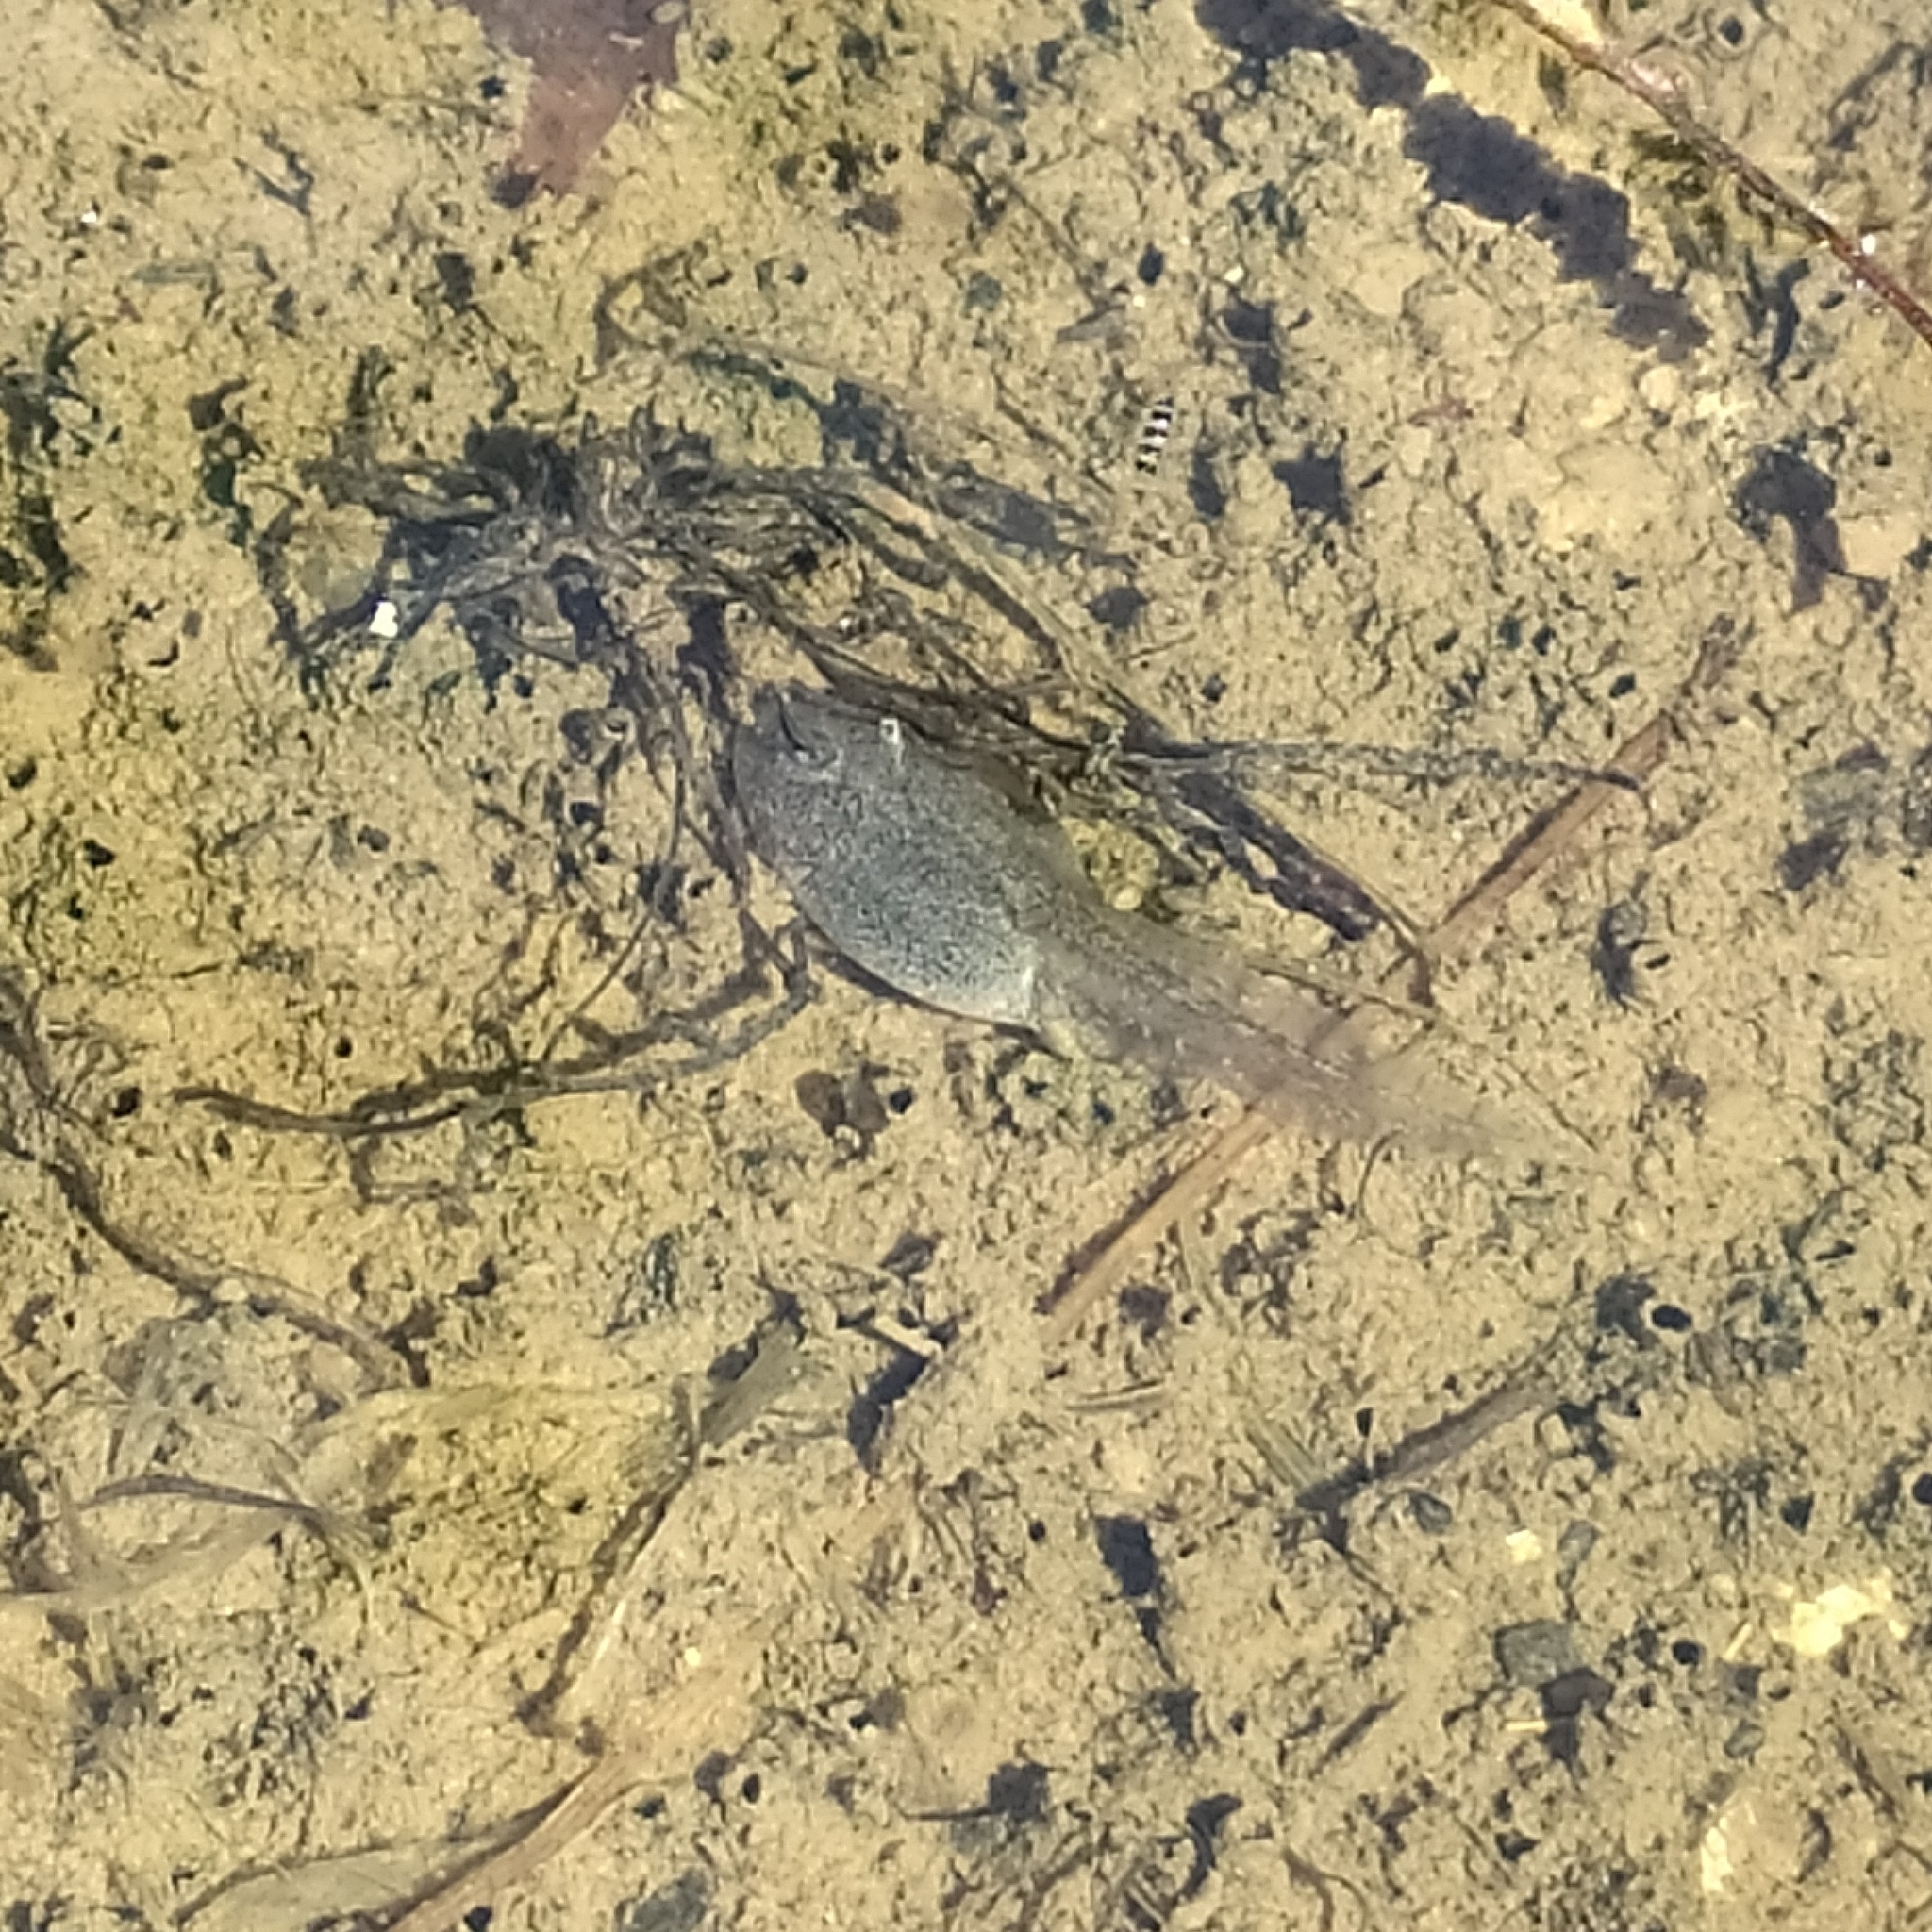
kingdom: Animalia
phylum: Chordata
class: Amphibia
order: Anura
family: Bombinatoridae
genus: Bombina
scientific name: Bombina variegata
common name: Yellow-bellied toad
